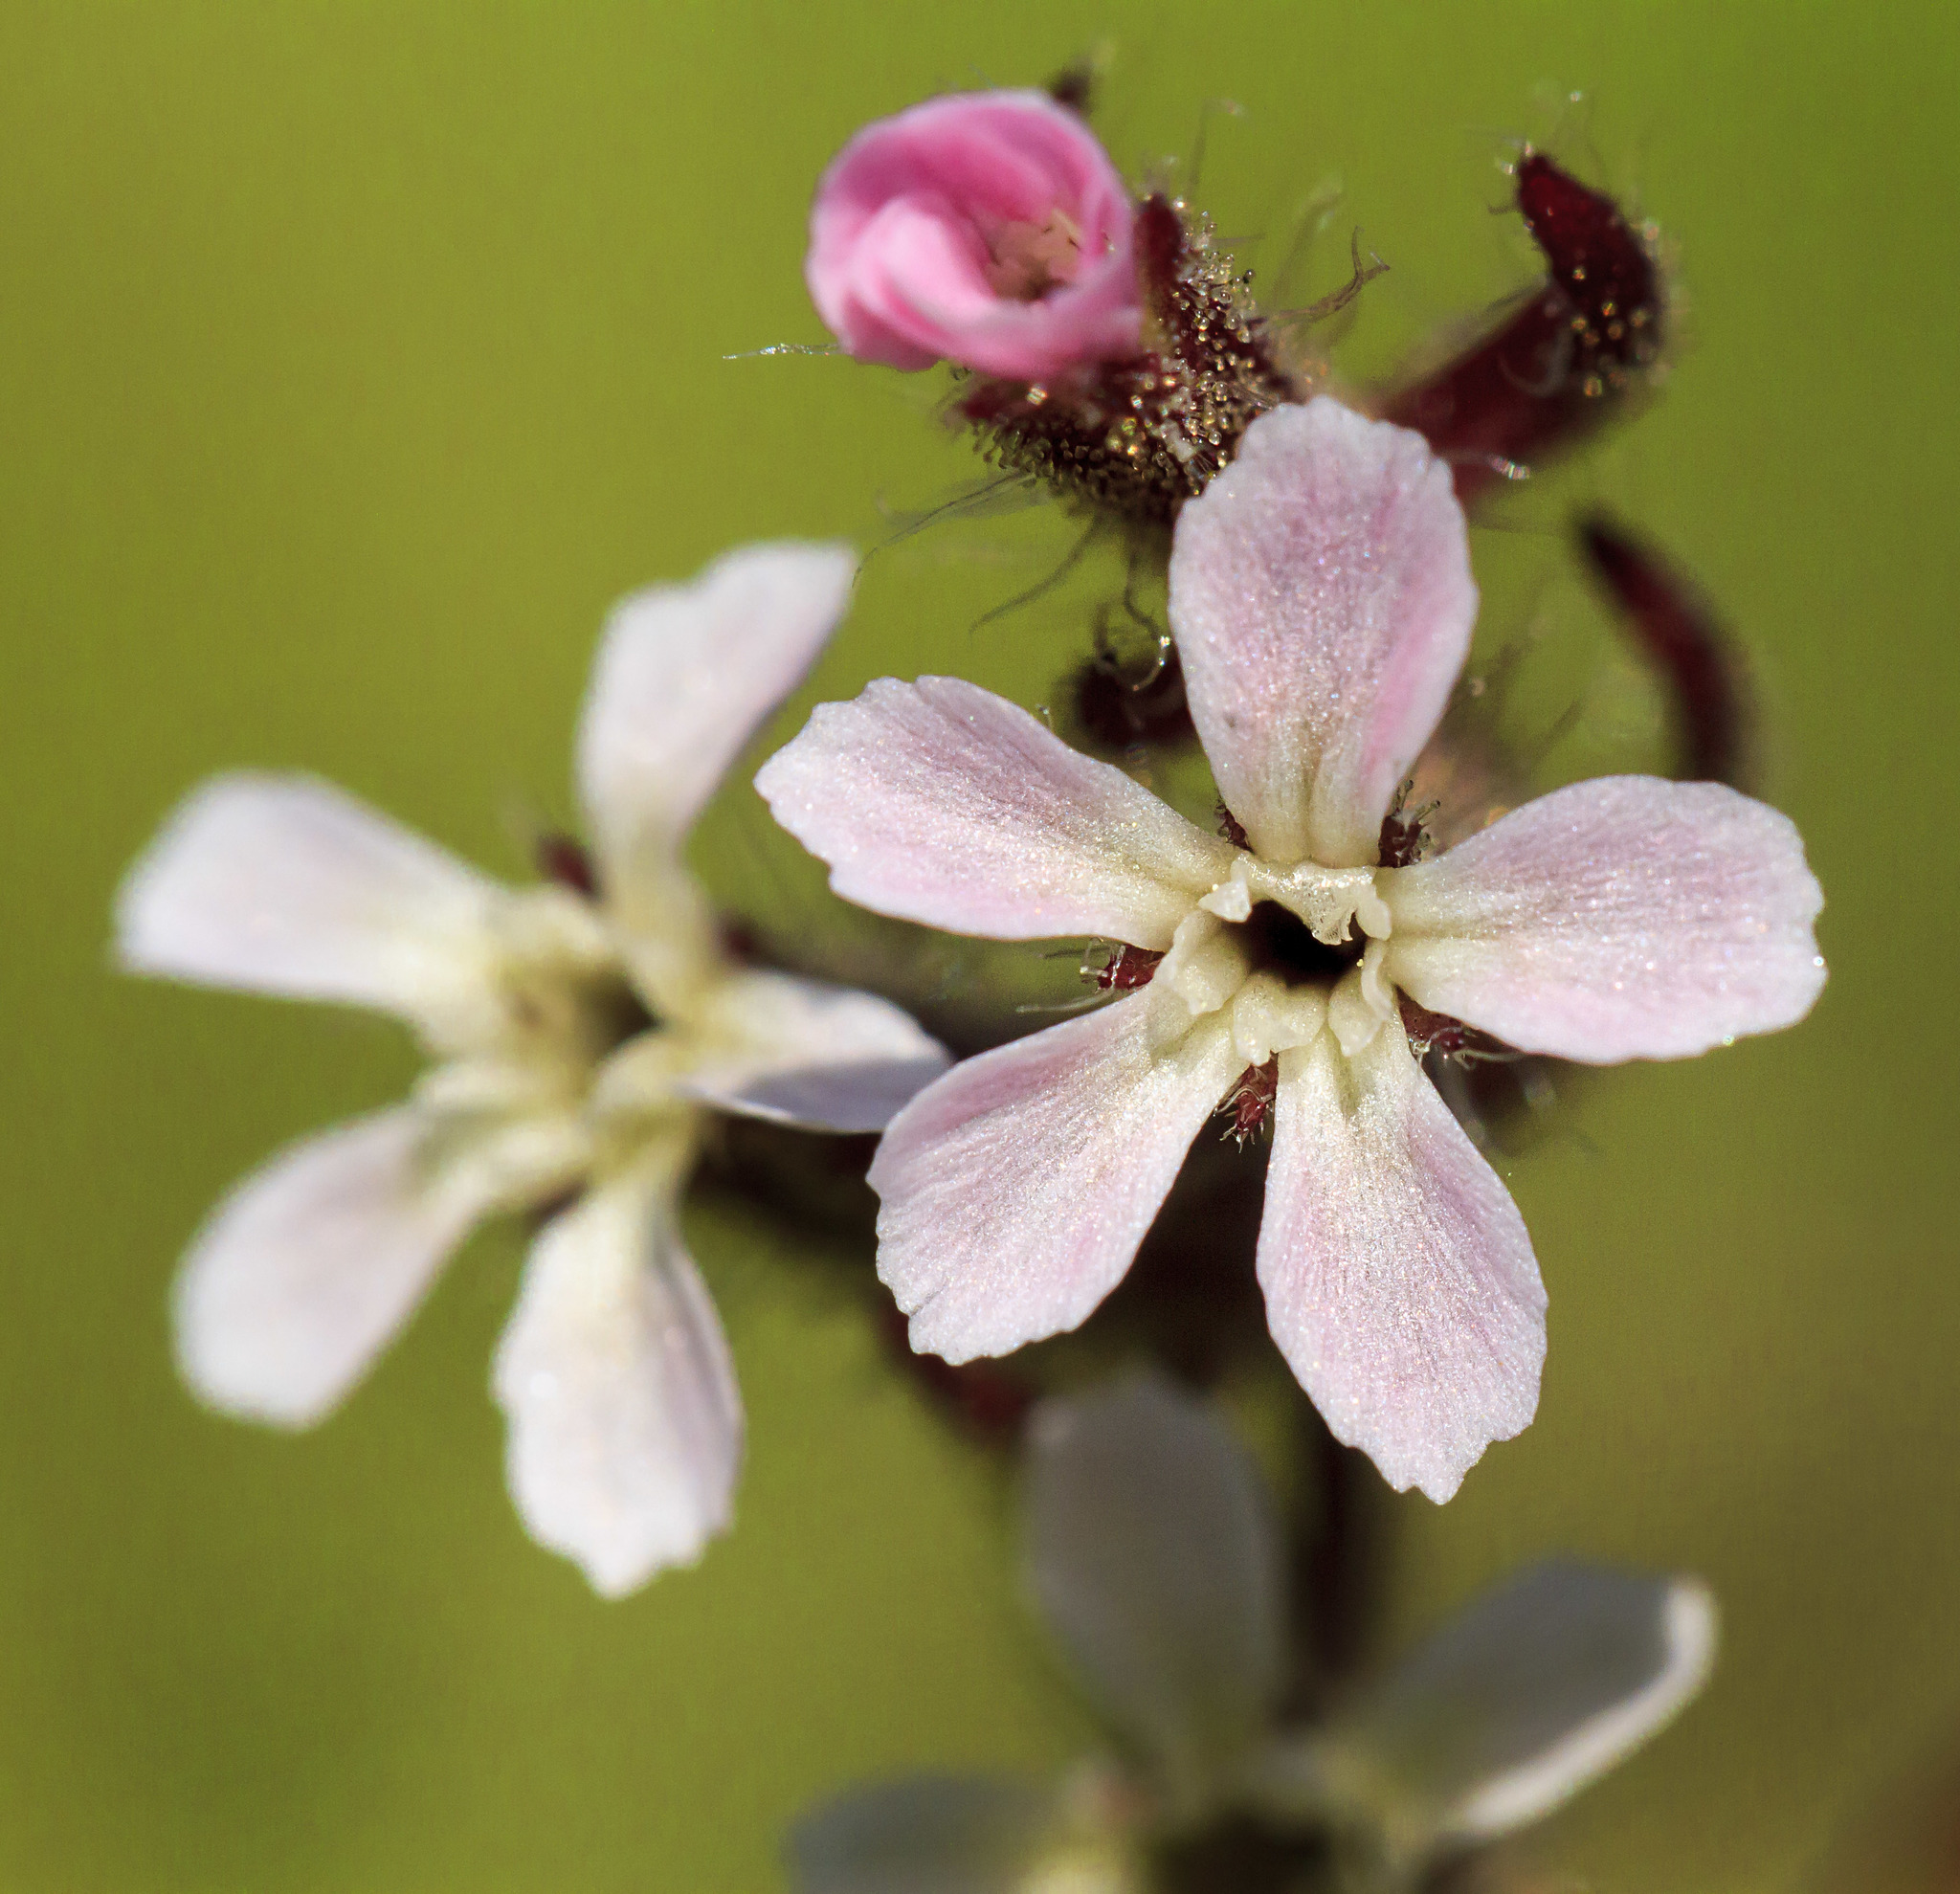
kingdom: Plantae
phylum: Tracheophyta
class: Magnoliopsida
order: Caryophyllales
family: Caryophyllaceae
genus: Silene
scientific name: Silene gallica
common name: Small-flowered catchfly
